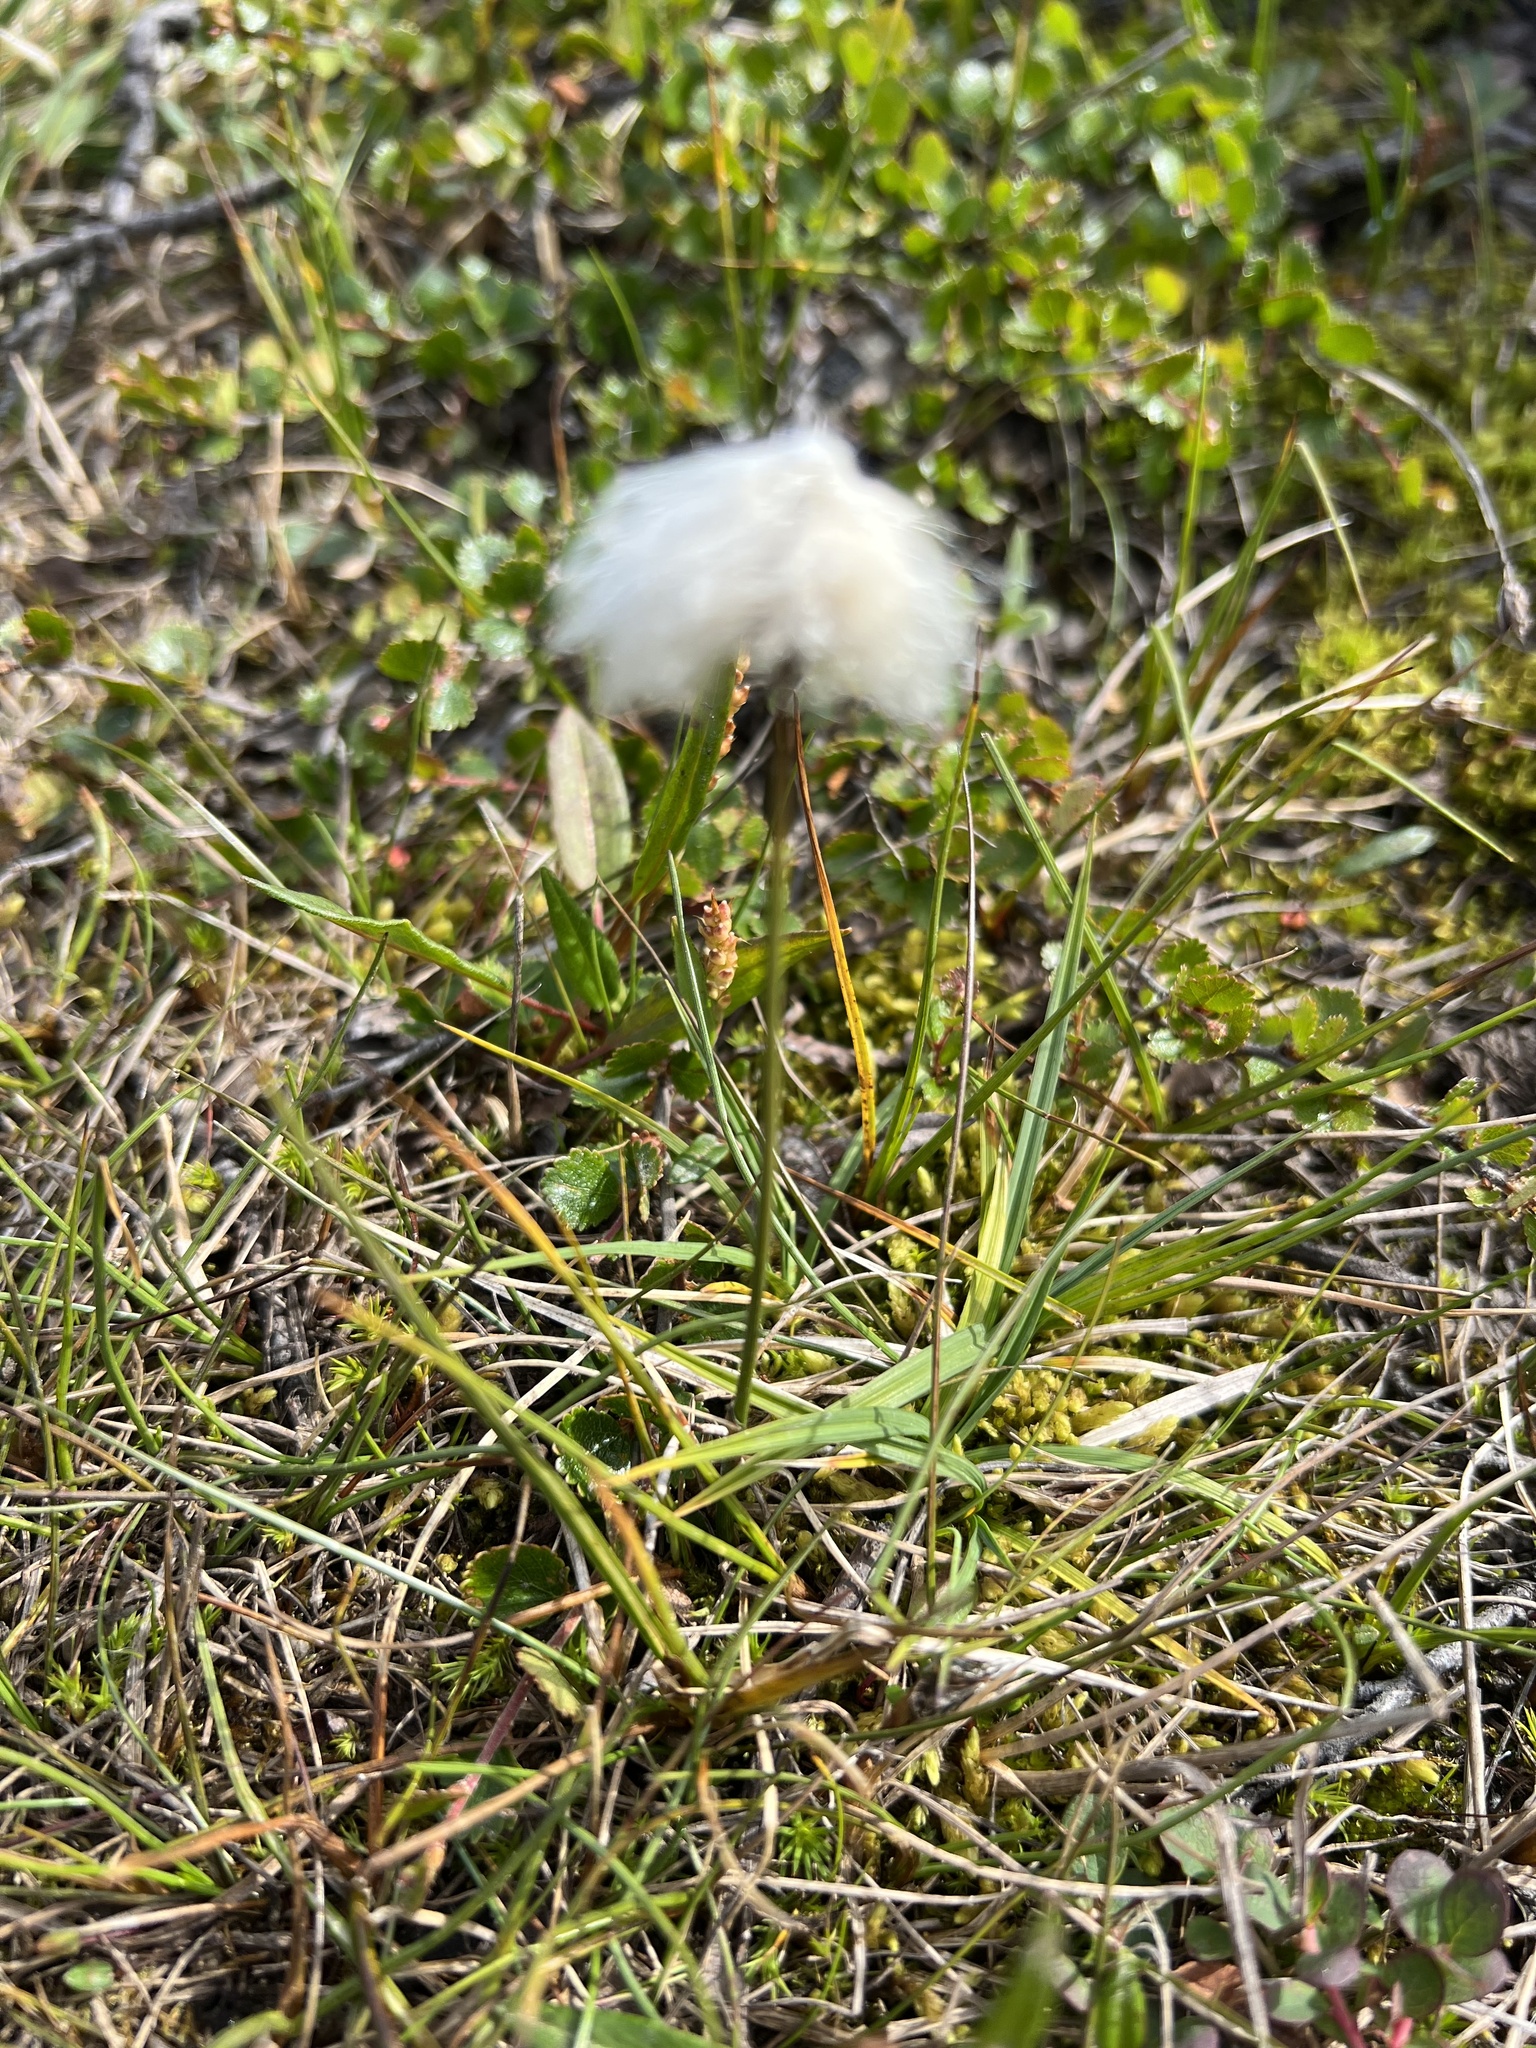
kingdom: Plantae
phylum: Tracheophyta
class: Liliopsida
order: Poales
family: Cyperaceae
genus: Eriophorum
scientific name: Eriophorum scheuchzeri
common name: Scheuchzer's cottongrass
